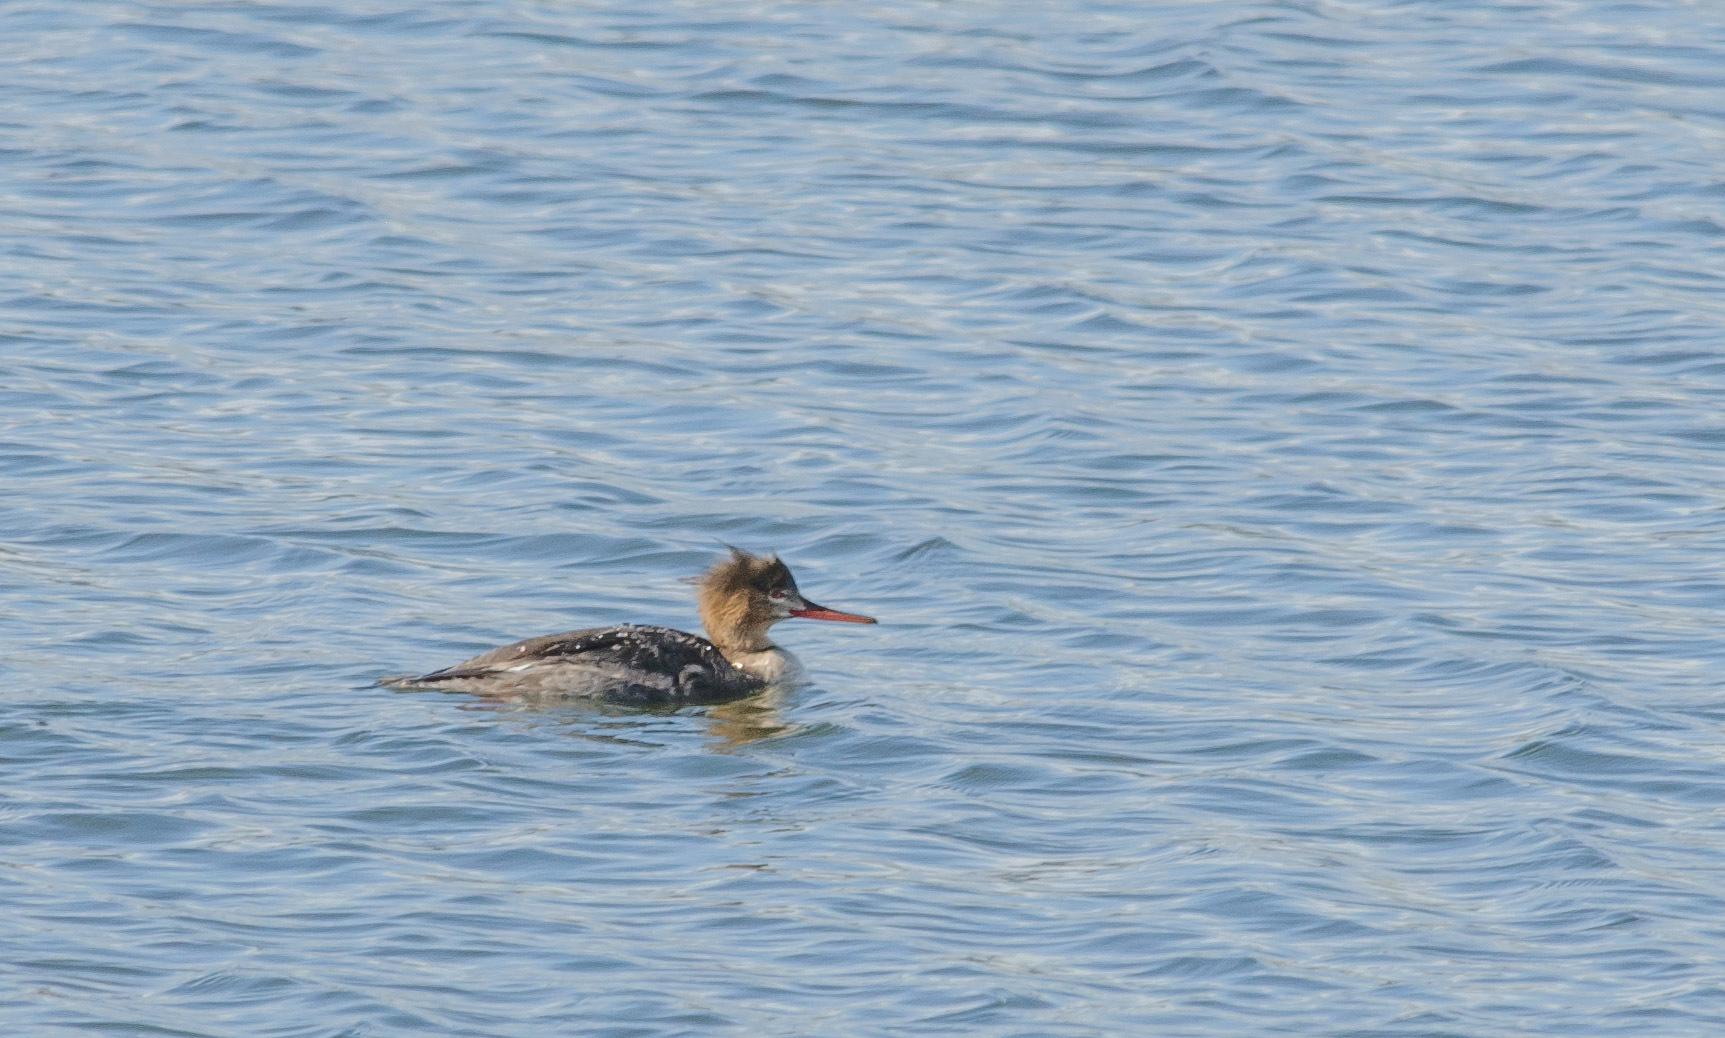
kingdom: Animalia
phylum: Chordata
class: Aves
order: Anseriformes
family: Anatidae
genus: Mergus
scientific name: Mergus serrator
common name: Red-breasted merganser
